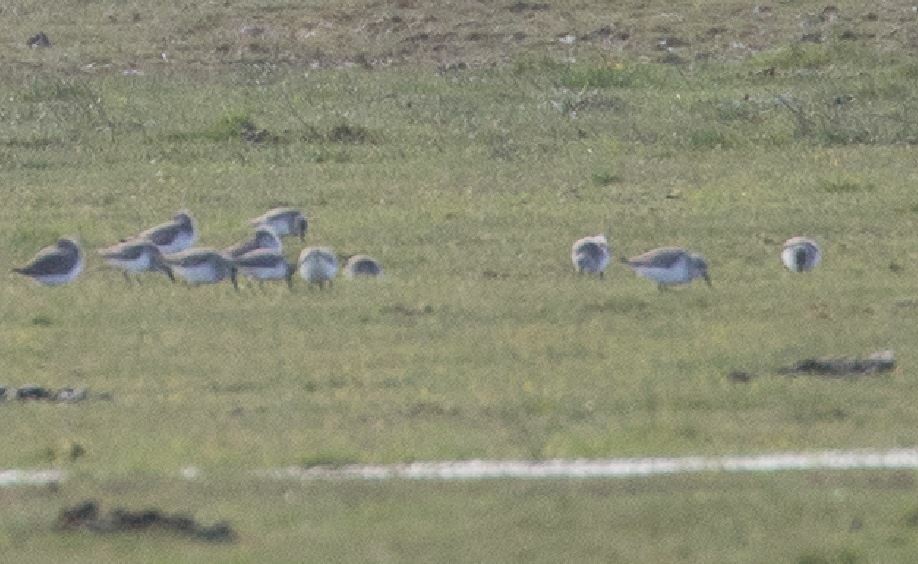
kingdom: Animalia
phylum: Chordata
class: Aves
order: Charadriiformes
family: Scolopacidae
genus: Calidris
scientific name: Calidris alpina
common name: Dunlin
